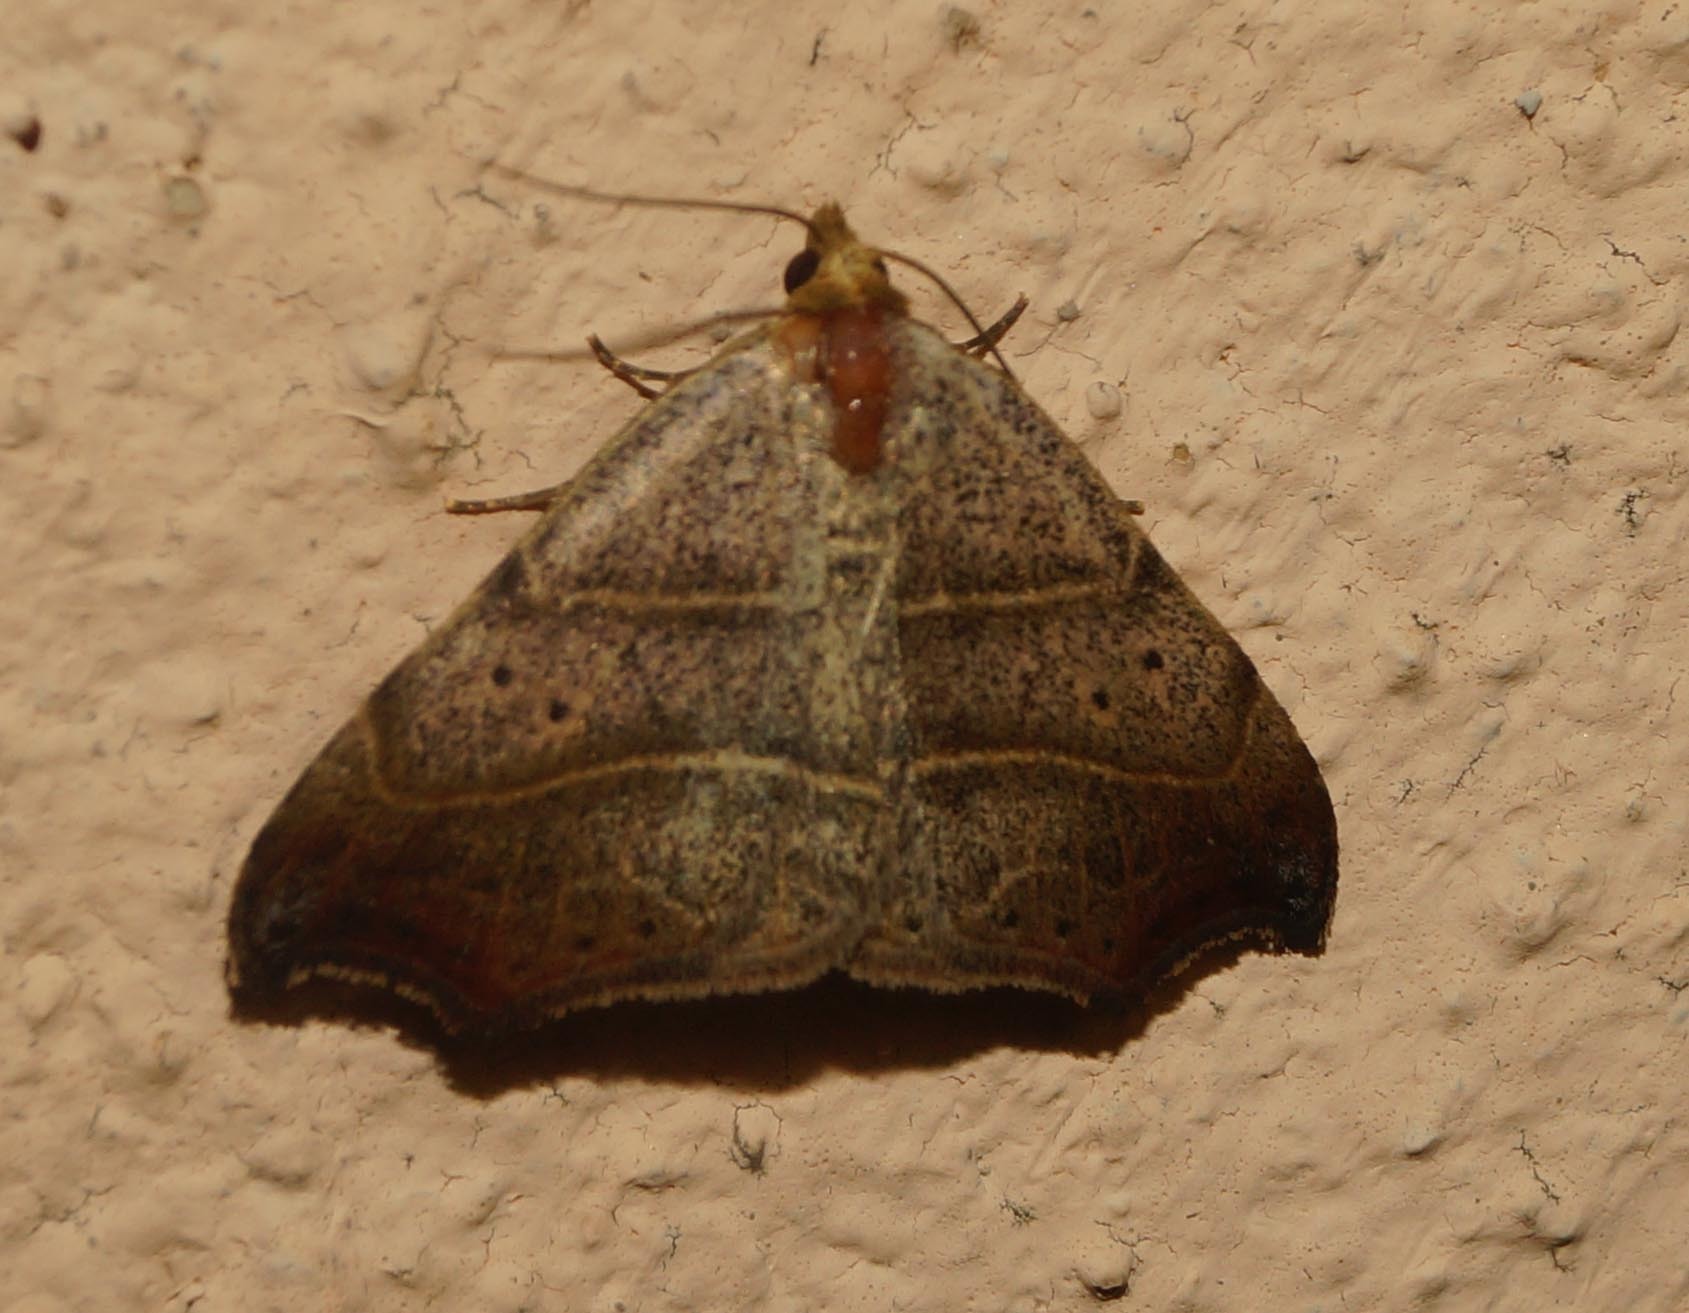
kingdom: Animalia
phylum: Arthropoda
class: Insecta
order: Lepidoptera
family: Erebidae
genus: Laspeyria
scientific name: Laspeyria flexula
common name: Beautiful hook-tip
